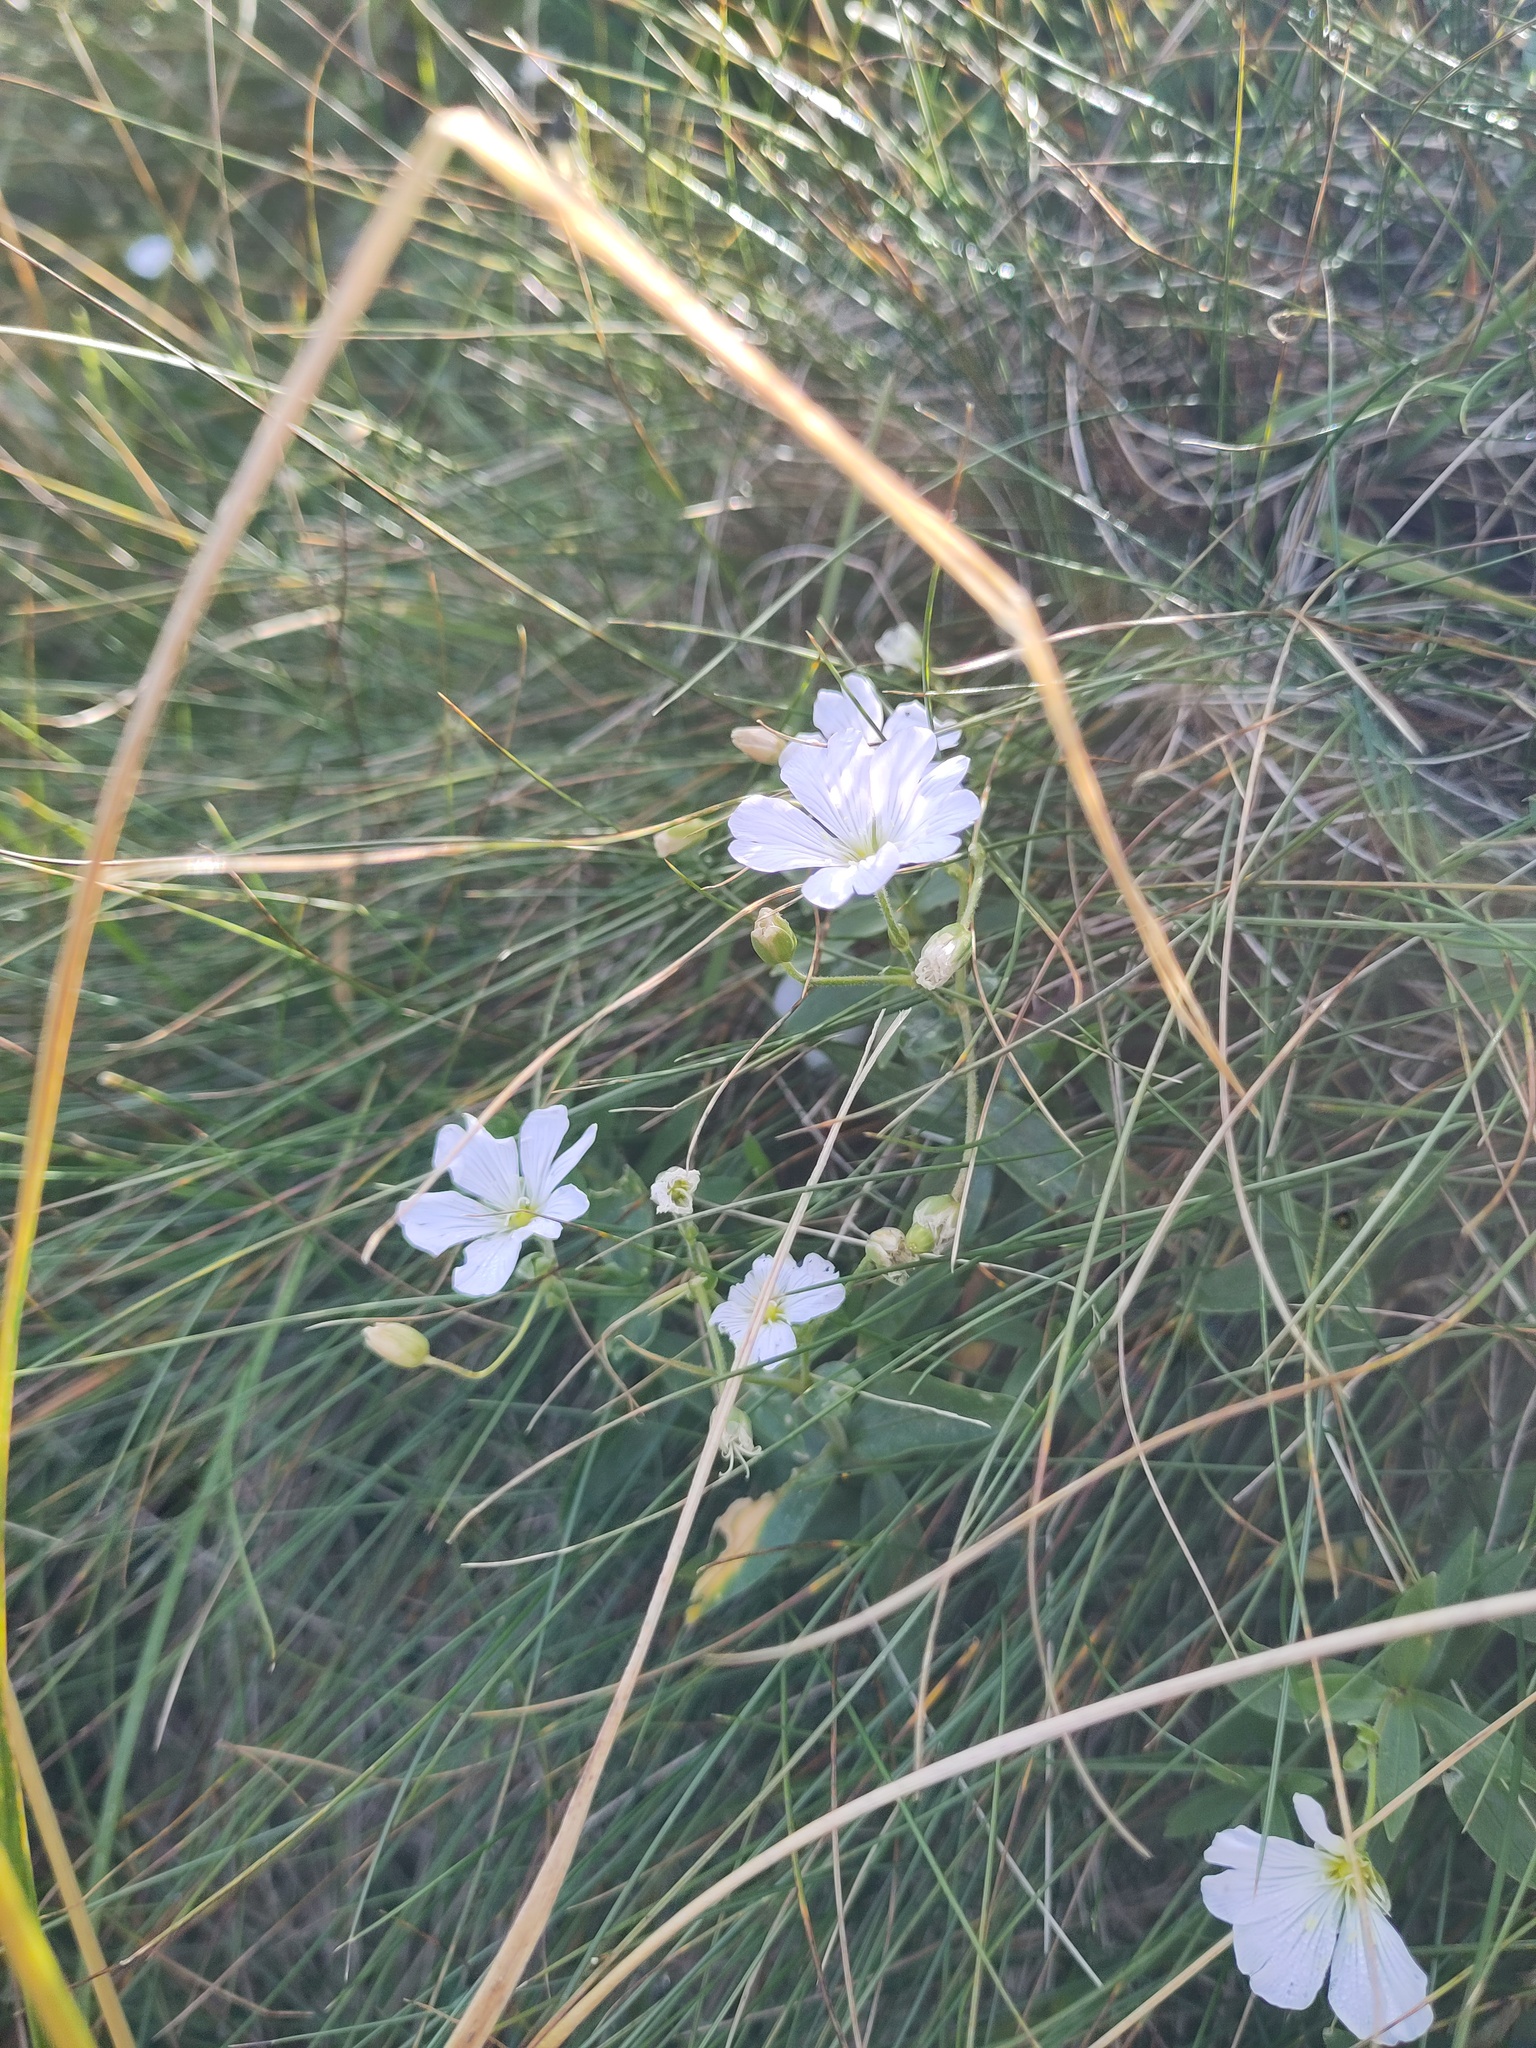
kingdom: Plantae
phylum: Tracheophyta
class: Magnoliopsida
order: Caryophyllales
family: Caryophyllaceae
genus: Cerastium
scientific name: Cerastium arvense
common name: Field mouse-ear
